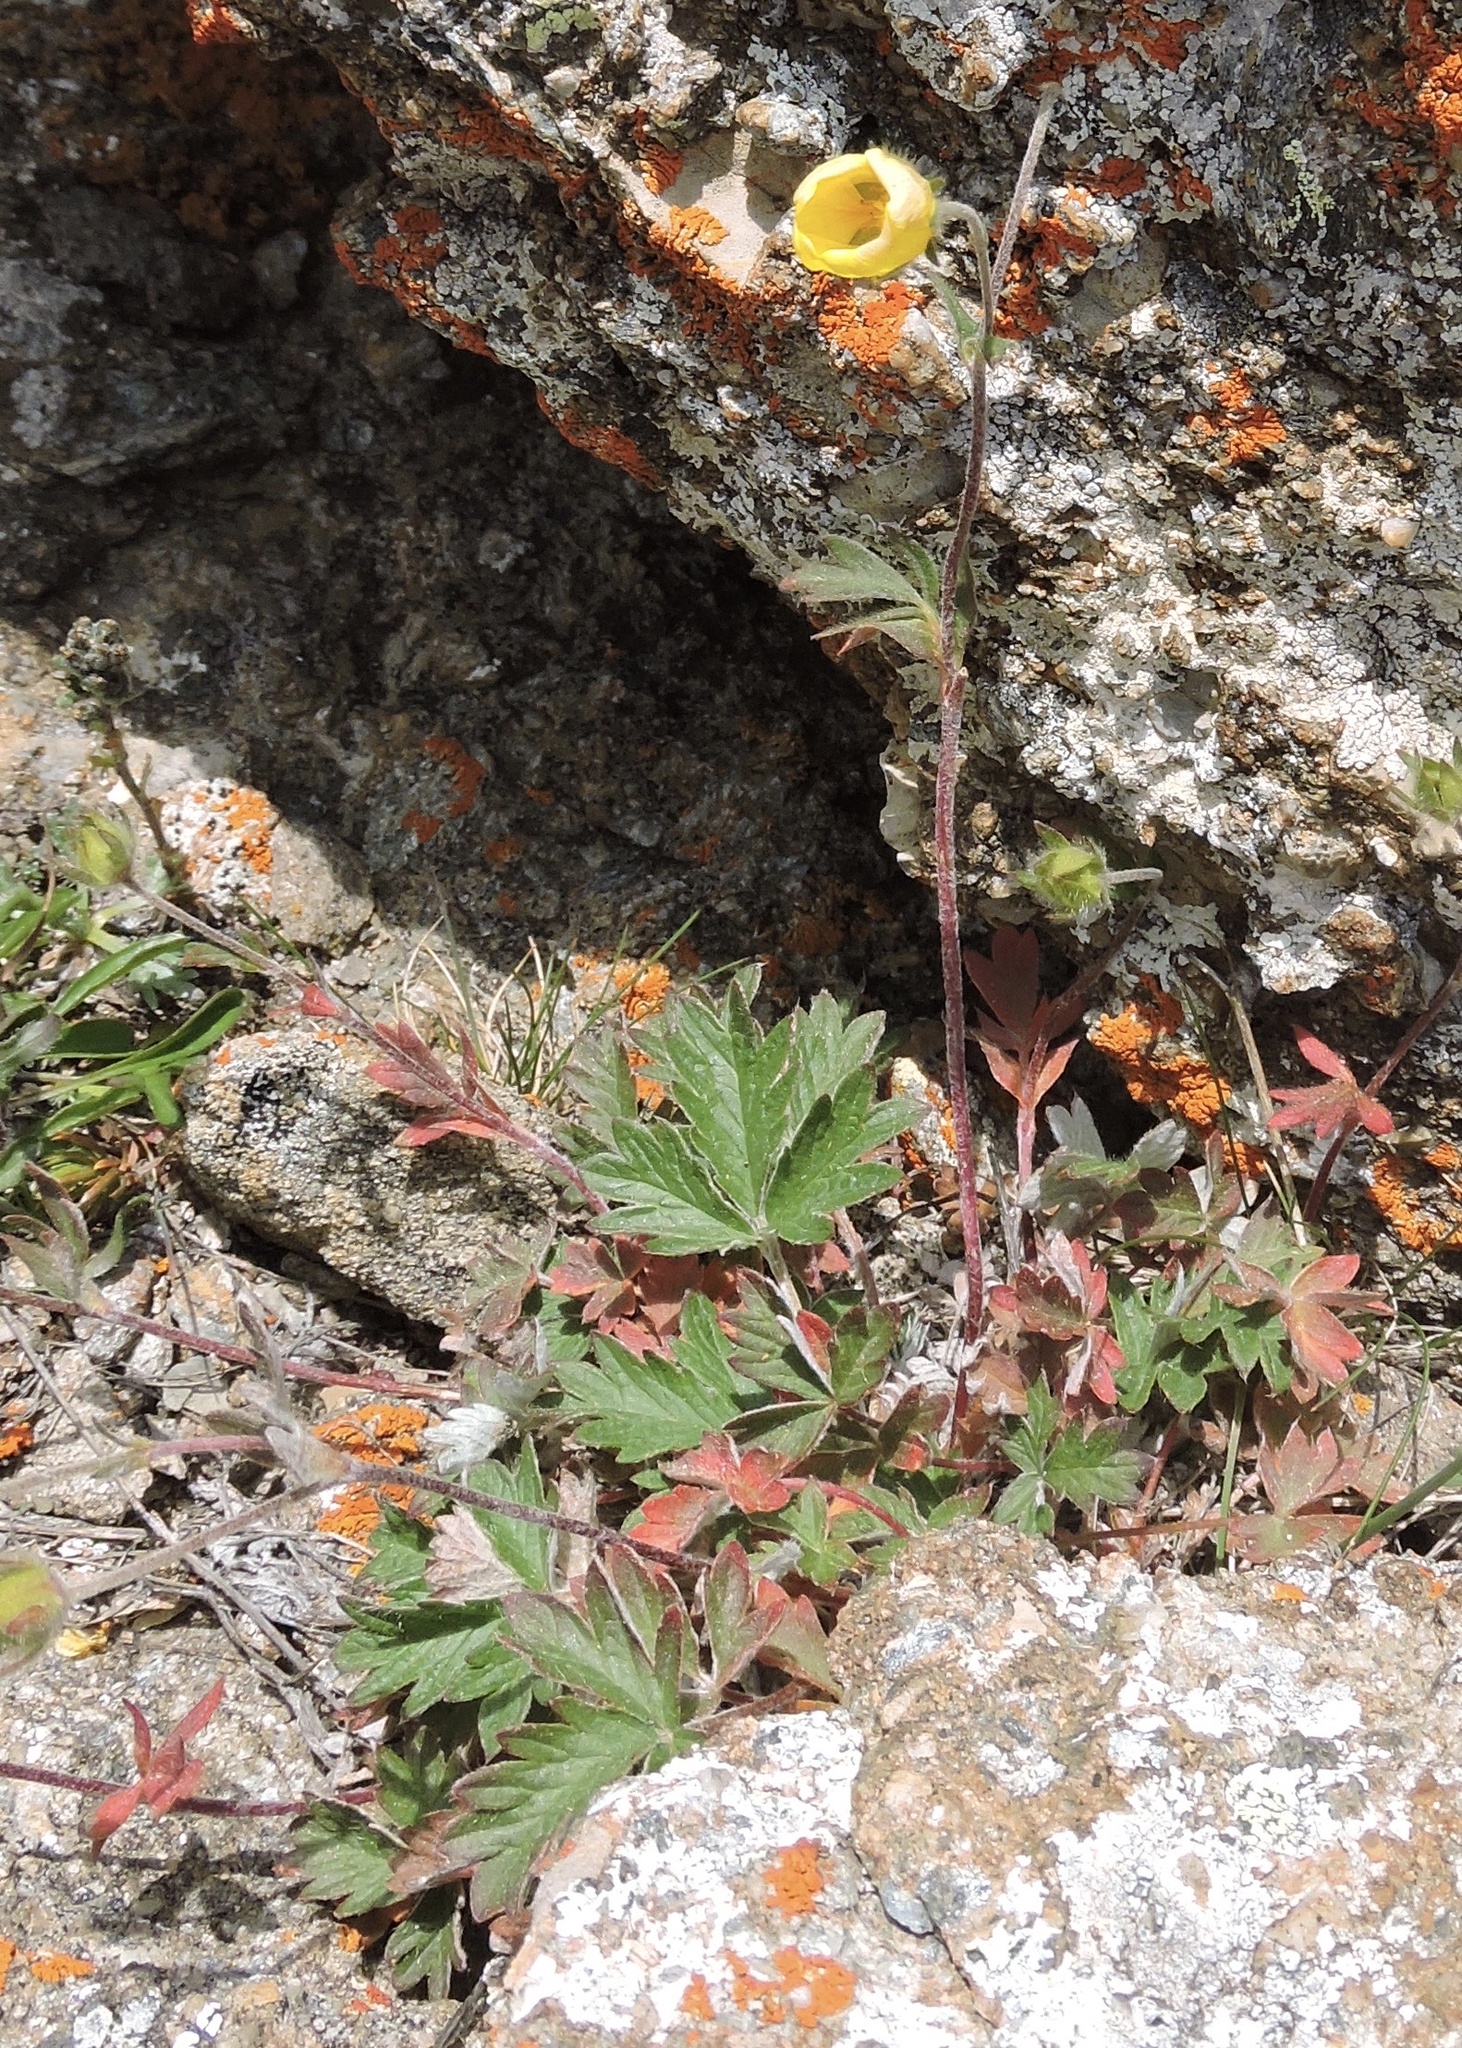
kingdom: Plantae
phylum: Tracheophyta
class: Magnoliopsida
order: Rosales
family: Rosaceae
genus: Potentilla
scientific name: Potentilla nivea
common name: Snow cinquefoil
